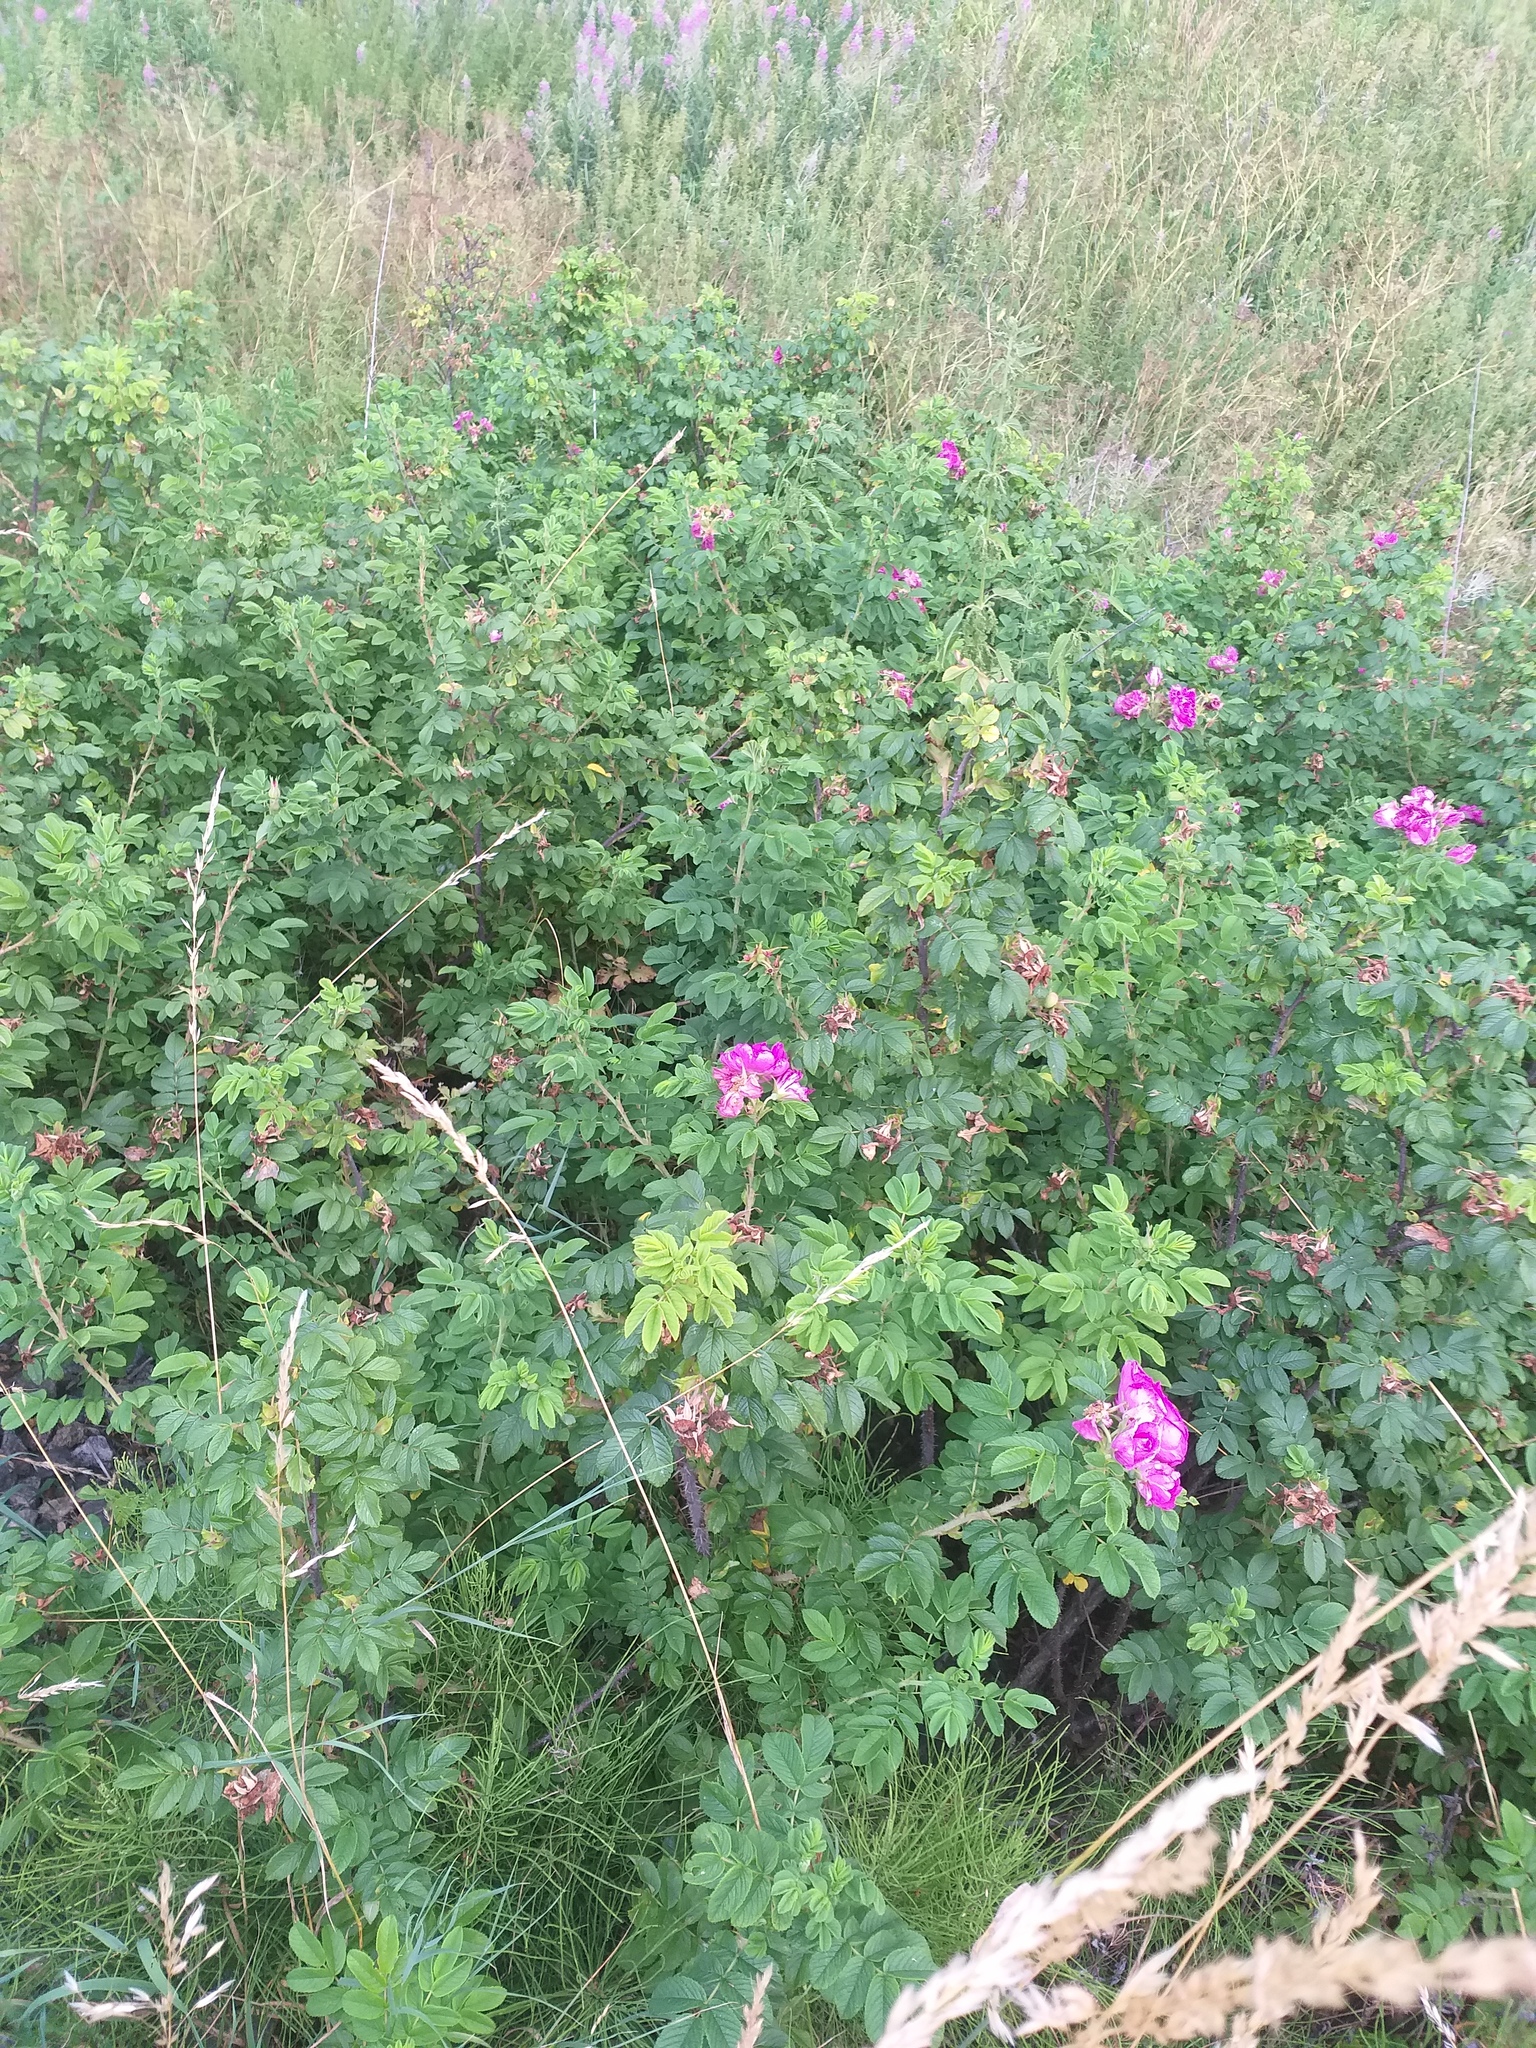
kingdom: Plantae
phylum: Tracheophyta
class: Magnoliopsida
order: Rosales
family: Rosaceae
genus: Rosa
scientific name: Rosa rugosa
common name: Japanese rose
